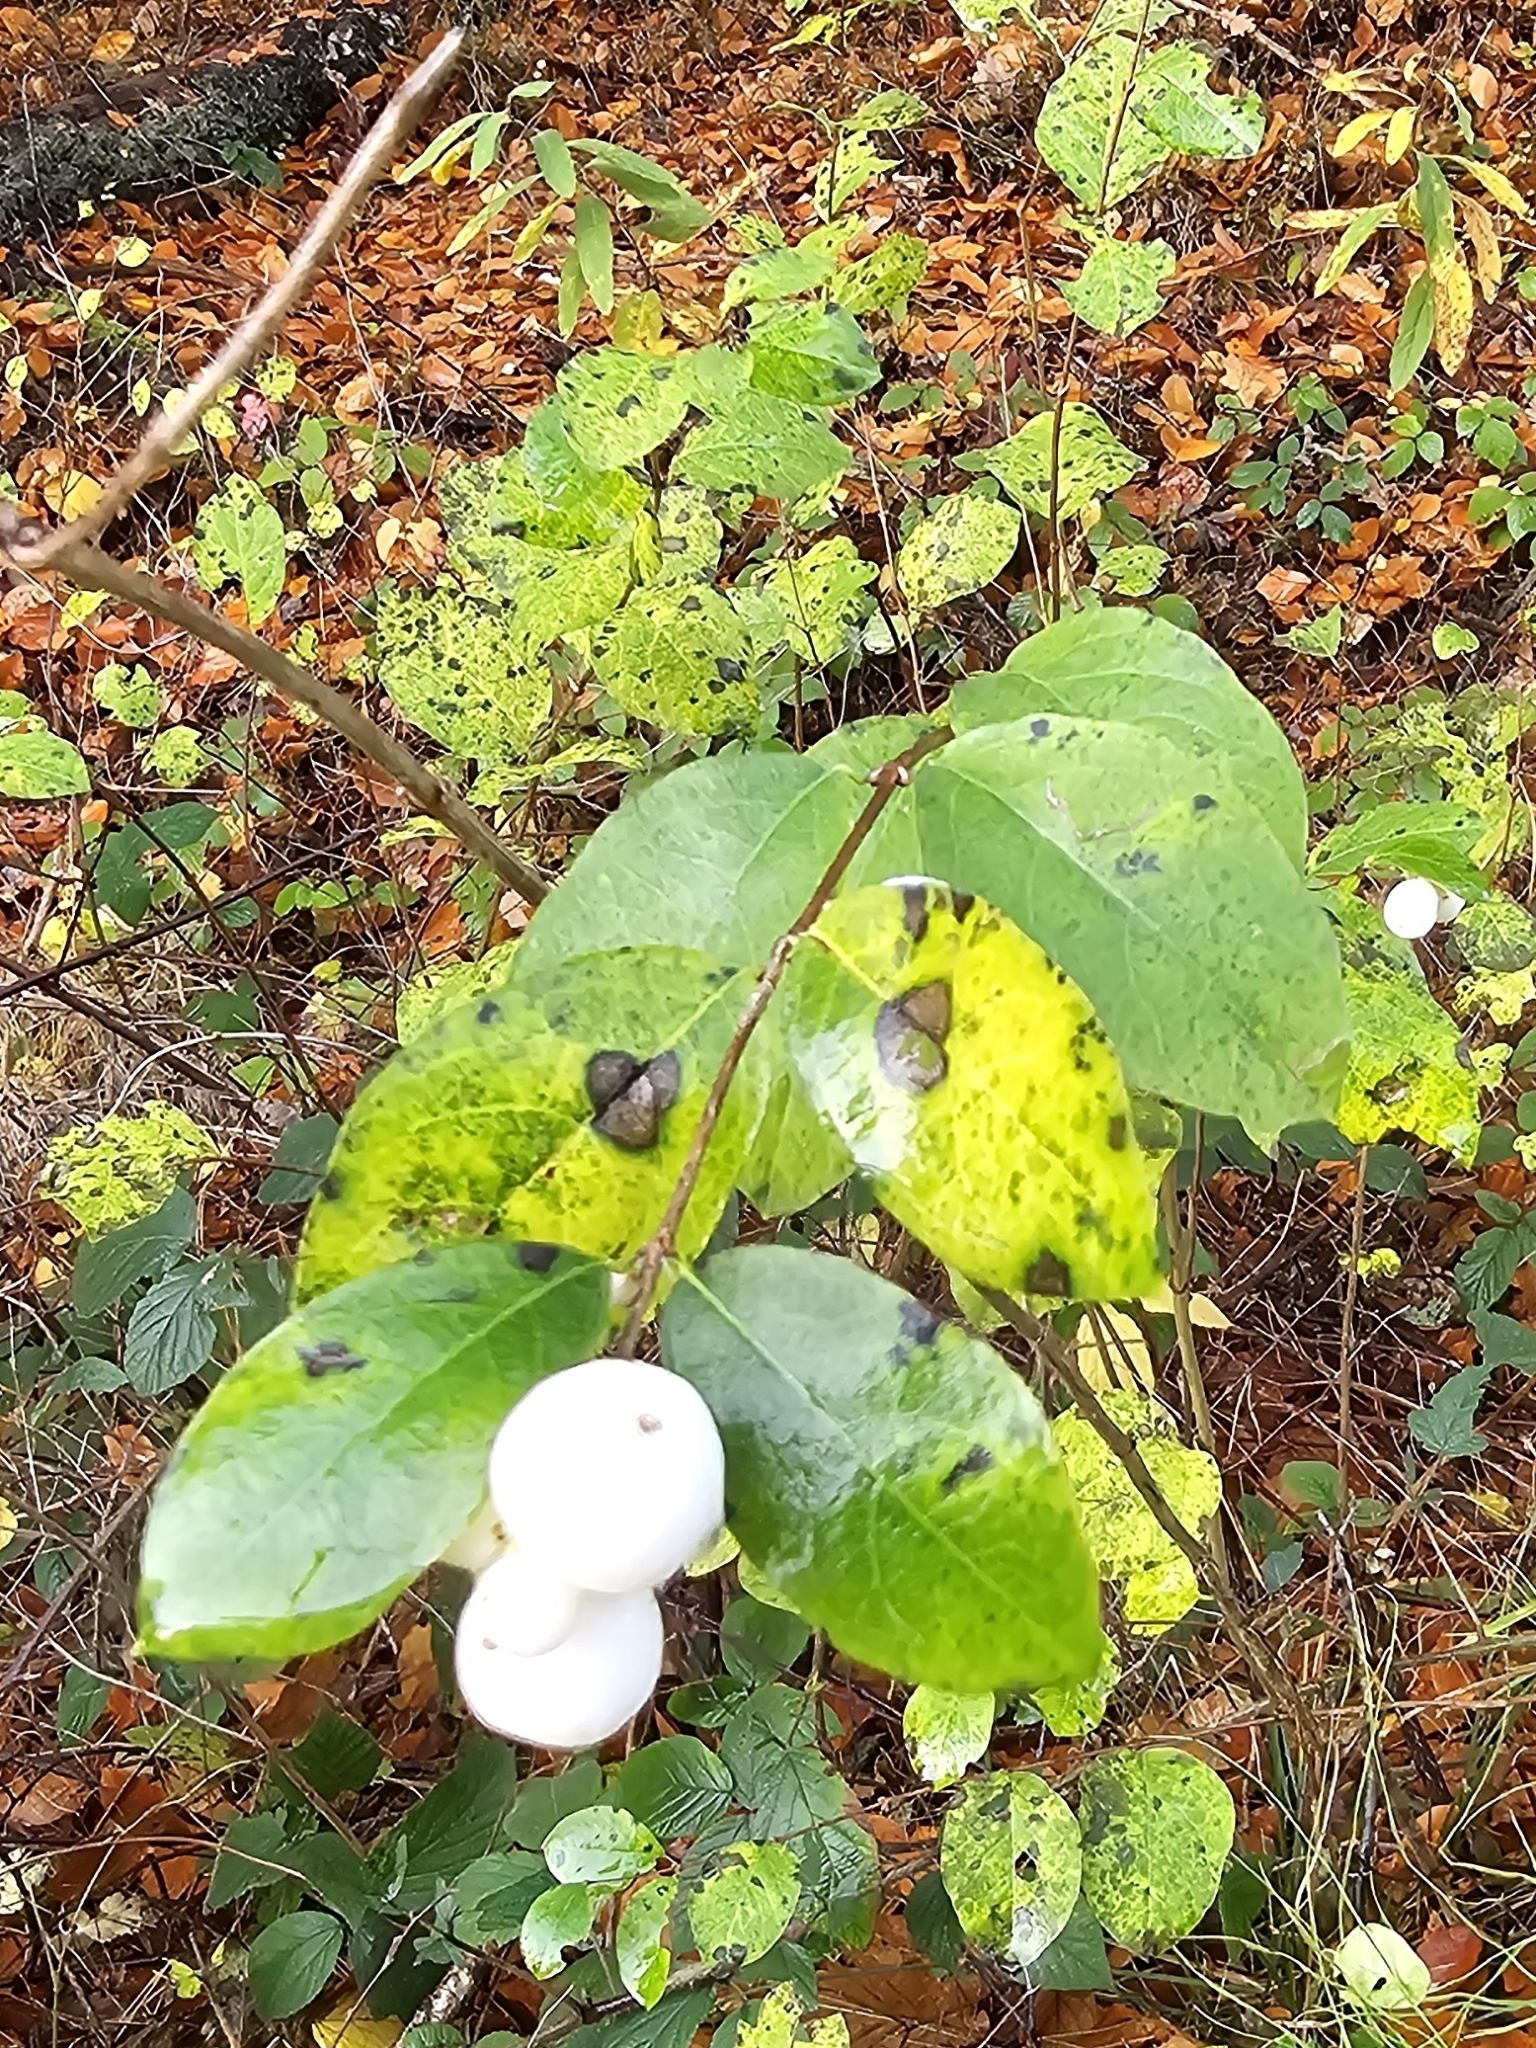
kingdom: Plantae
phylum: Tracheophyta
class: Magnoliopsida
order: Dipsacales
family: Caprifoliaceae
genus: Symphoricarpos
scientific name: Symphoricarpos albus
